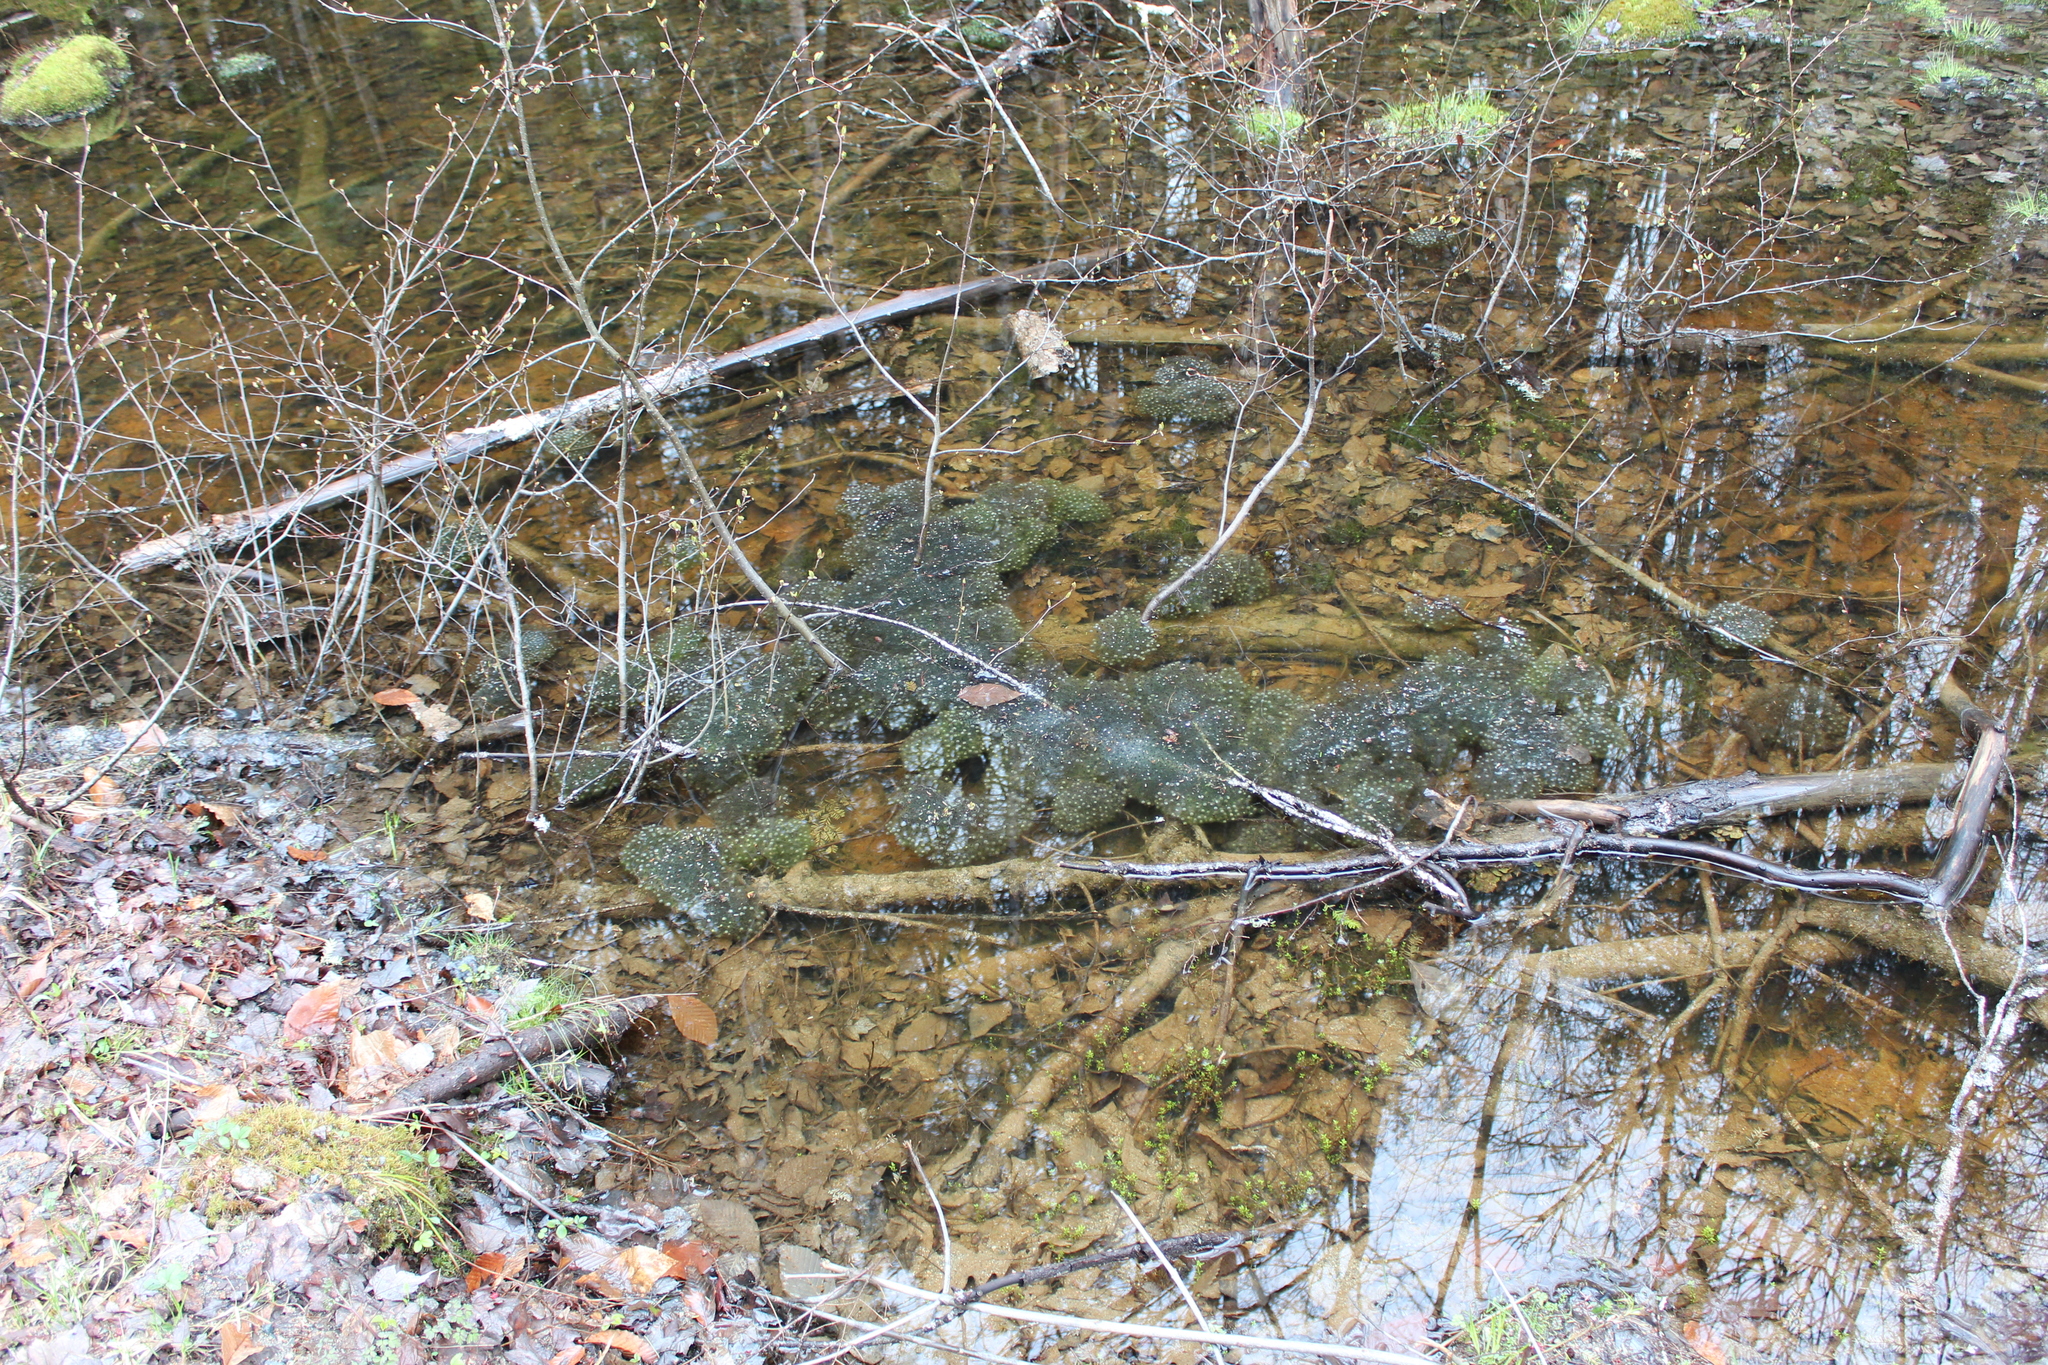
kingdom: Animalia
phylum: Chordata
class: Amphibia
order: Anura
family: Ranidae
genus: Lithobates
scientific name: Lithobates sylvaticus
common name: Wood frog
